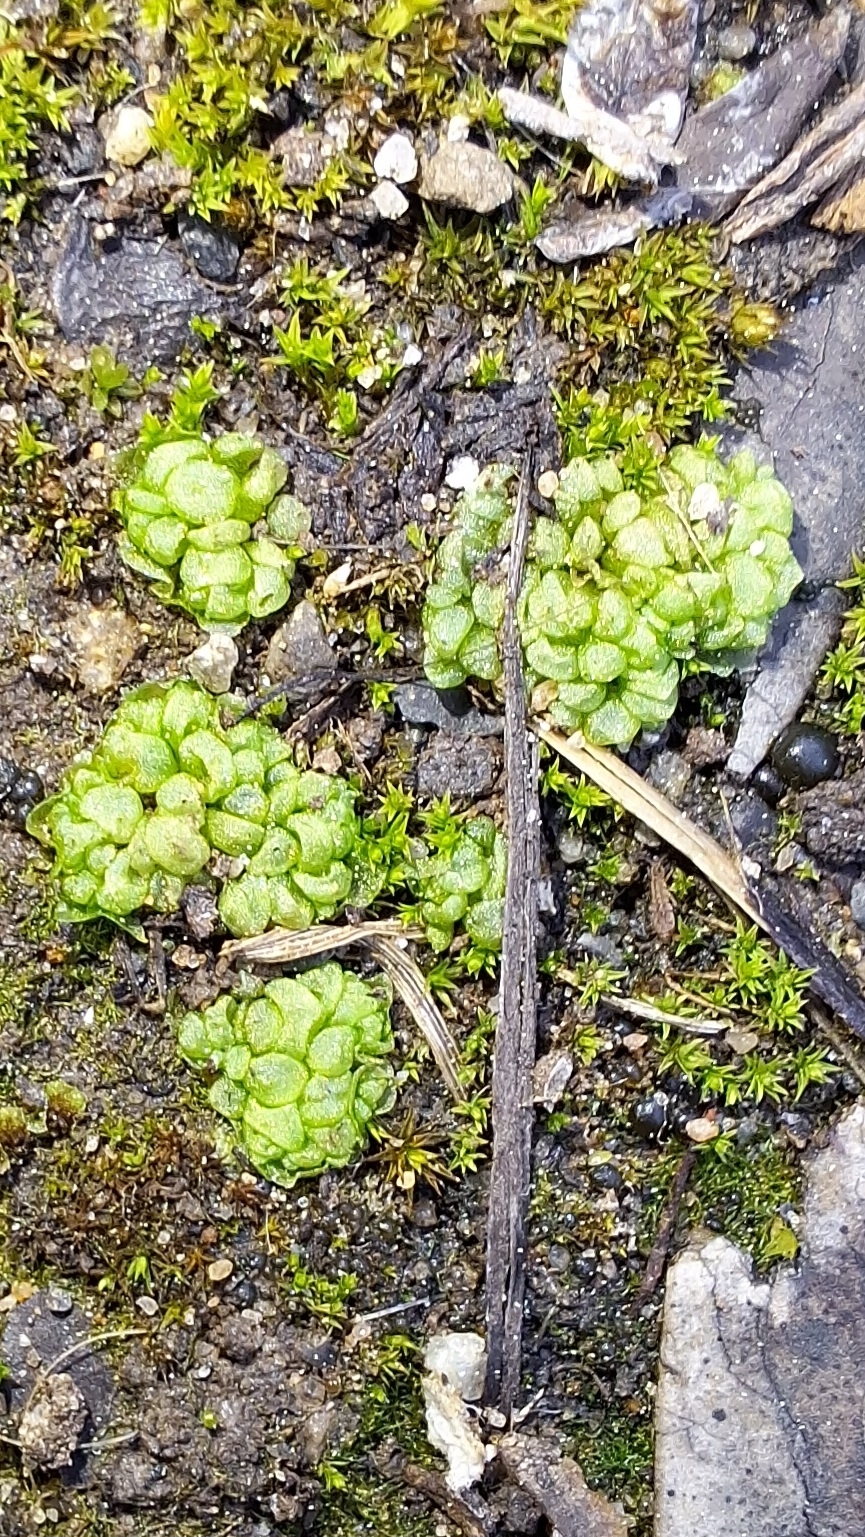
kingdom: Plantae
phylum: Marchantiophyta
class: Marchantiopsida
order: Sphaerocarpales
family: Sphaerocarpaceae
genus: Sphaerocarpos
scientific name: Sphaerocarpos texanus
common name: Texas balloonwort
